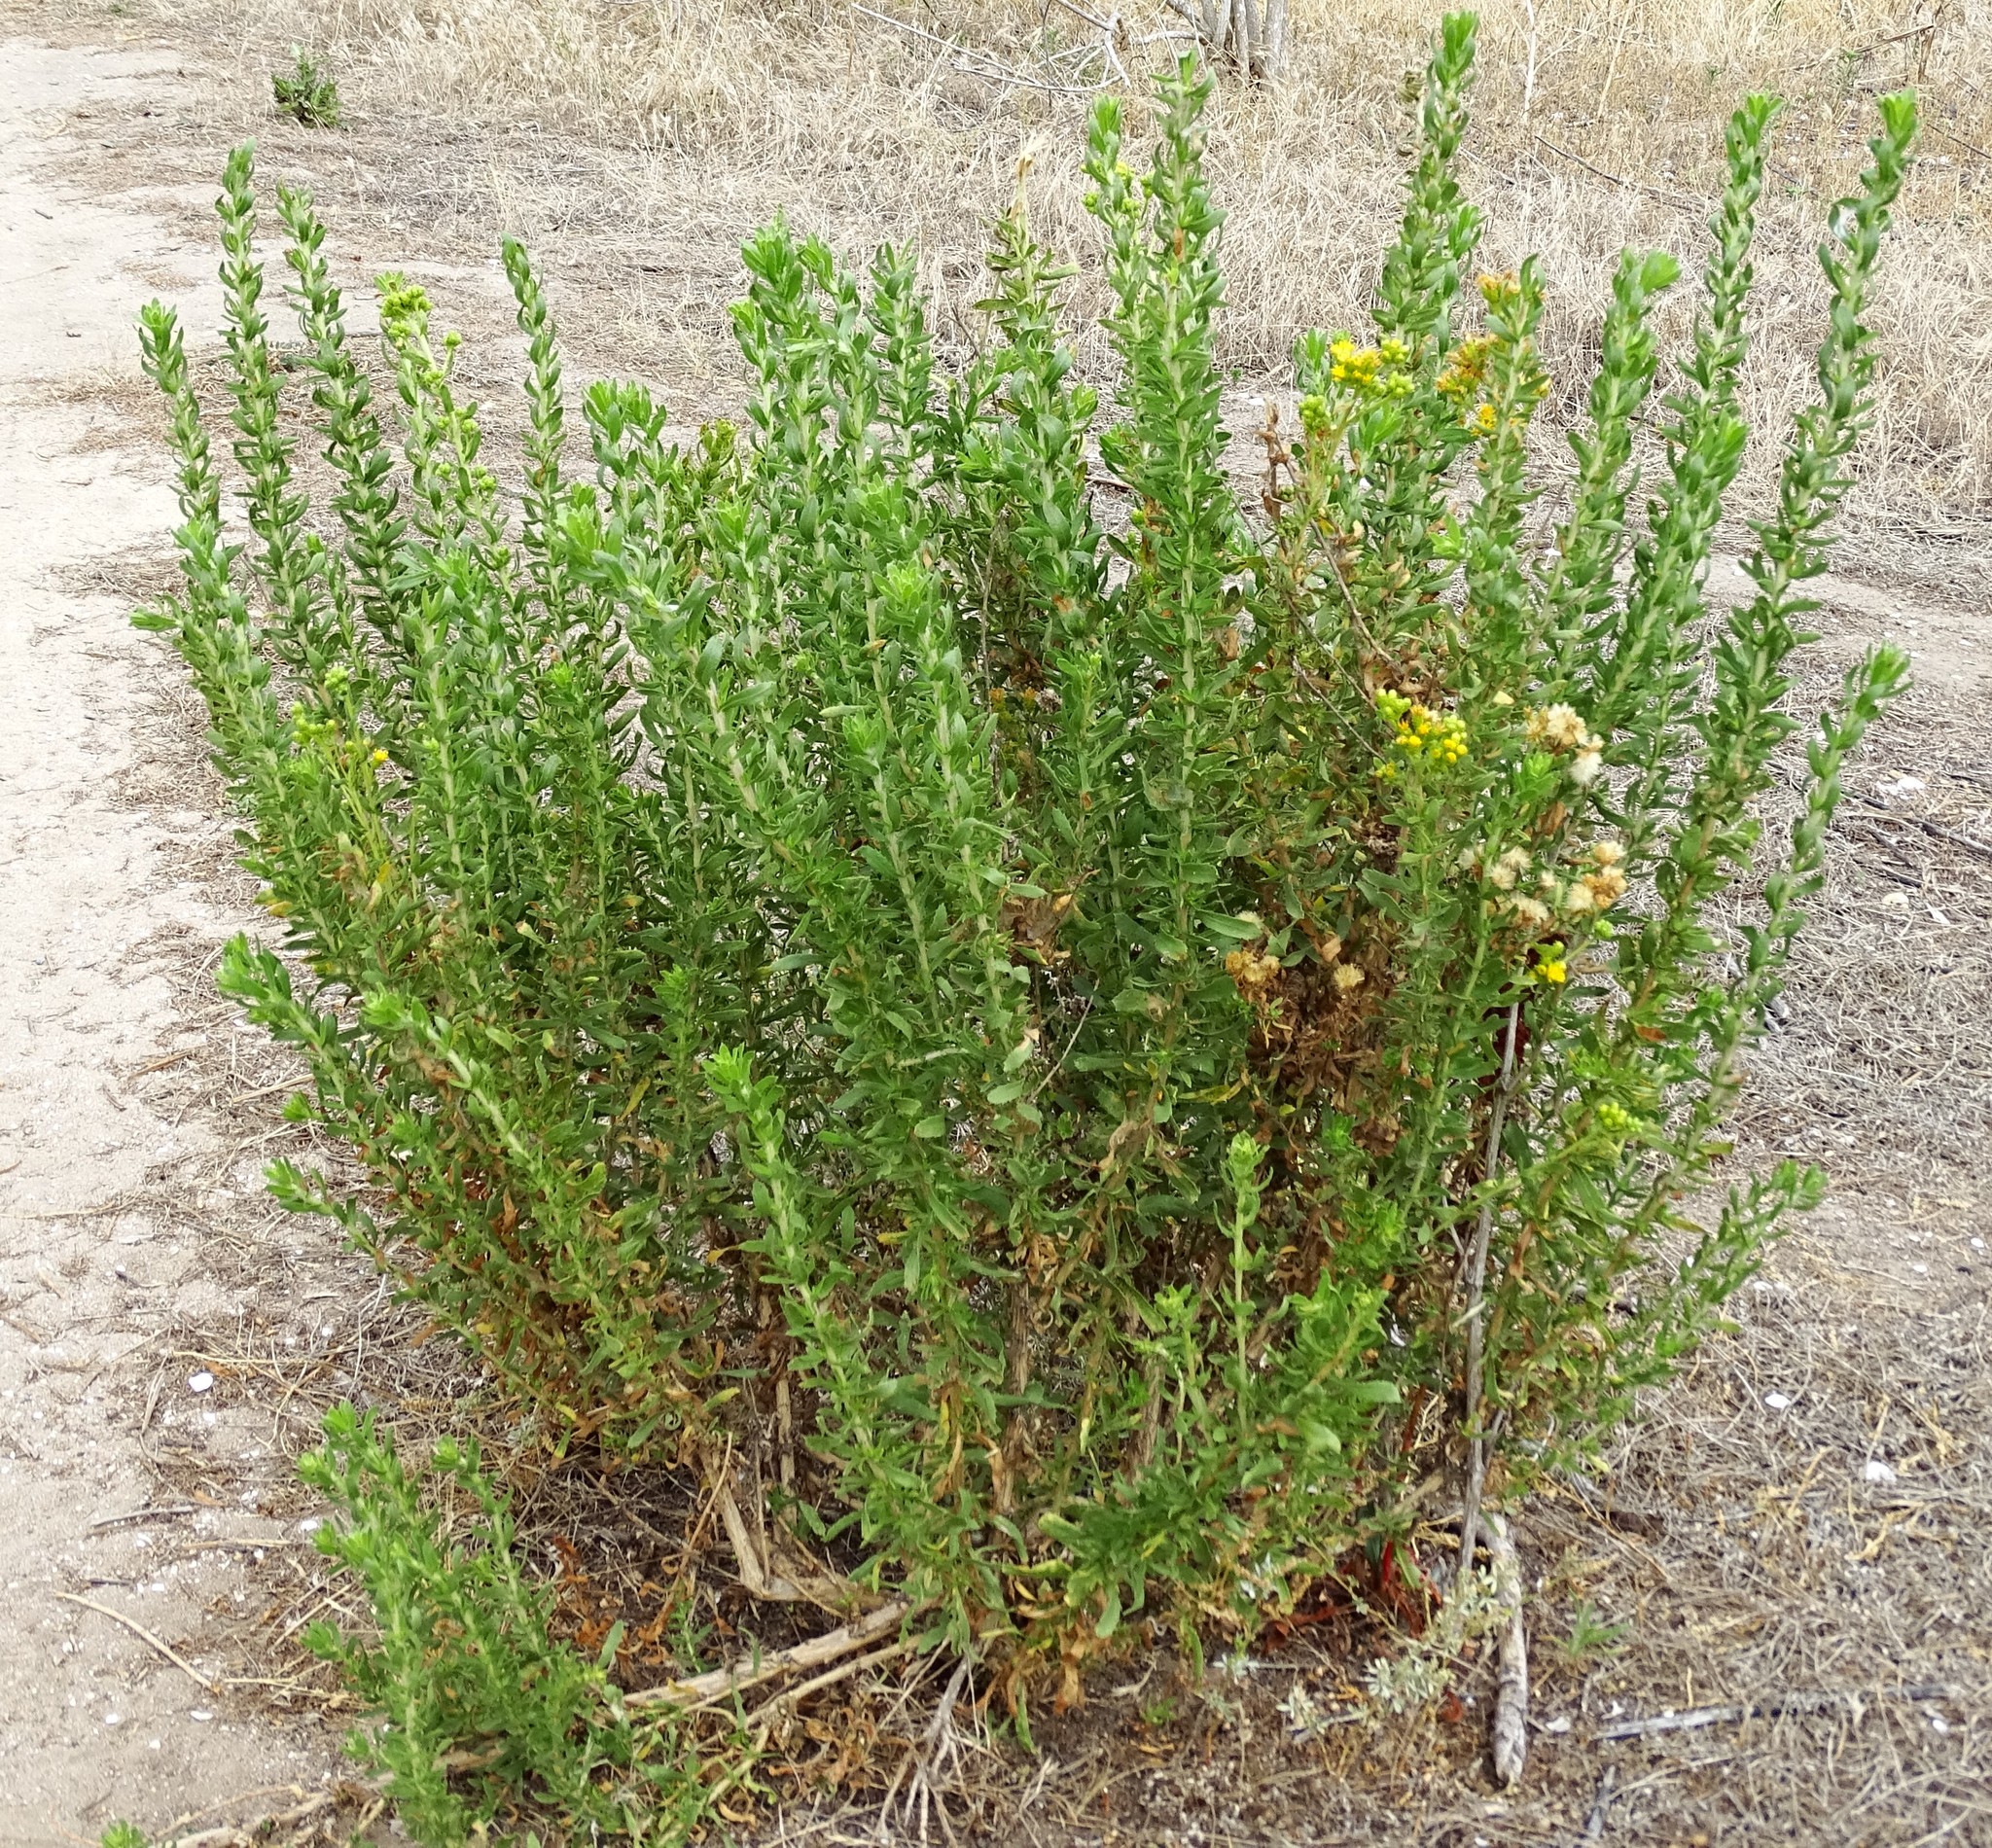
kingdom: Plantae
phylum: Tracheophyta
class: Magnoliopsida
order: Asterales
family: Asteraceae
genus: Isocoma
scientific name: Isocoma menziesii
